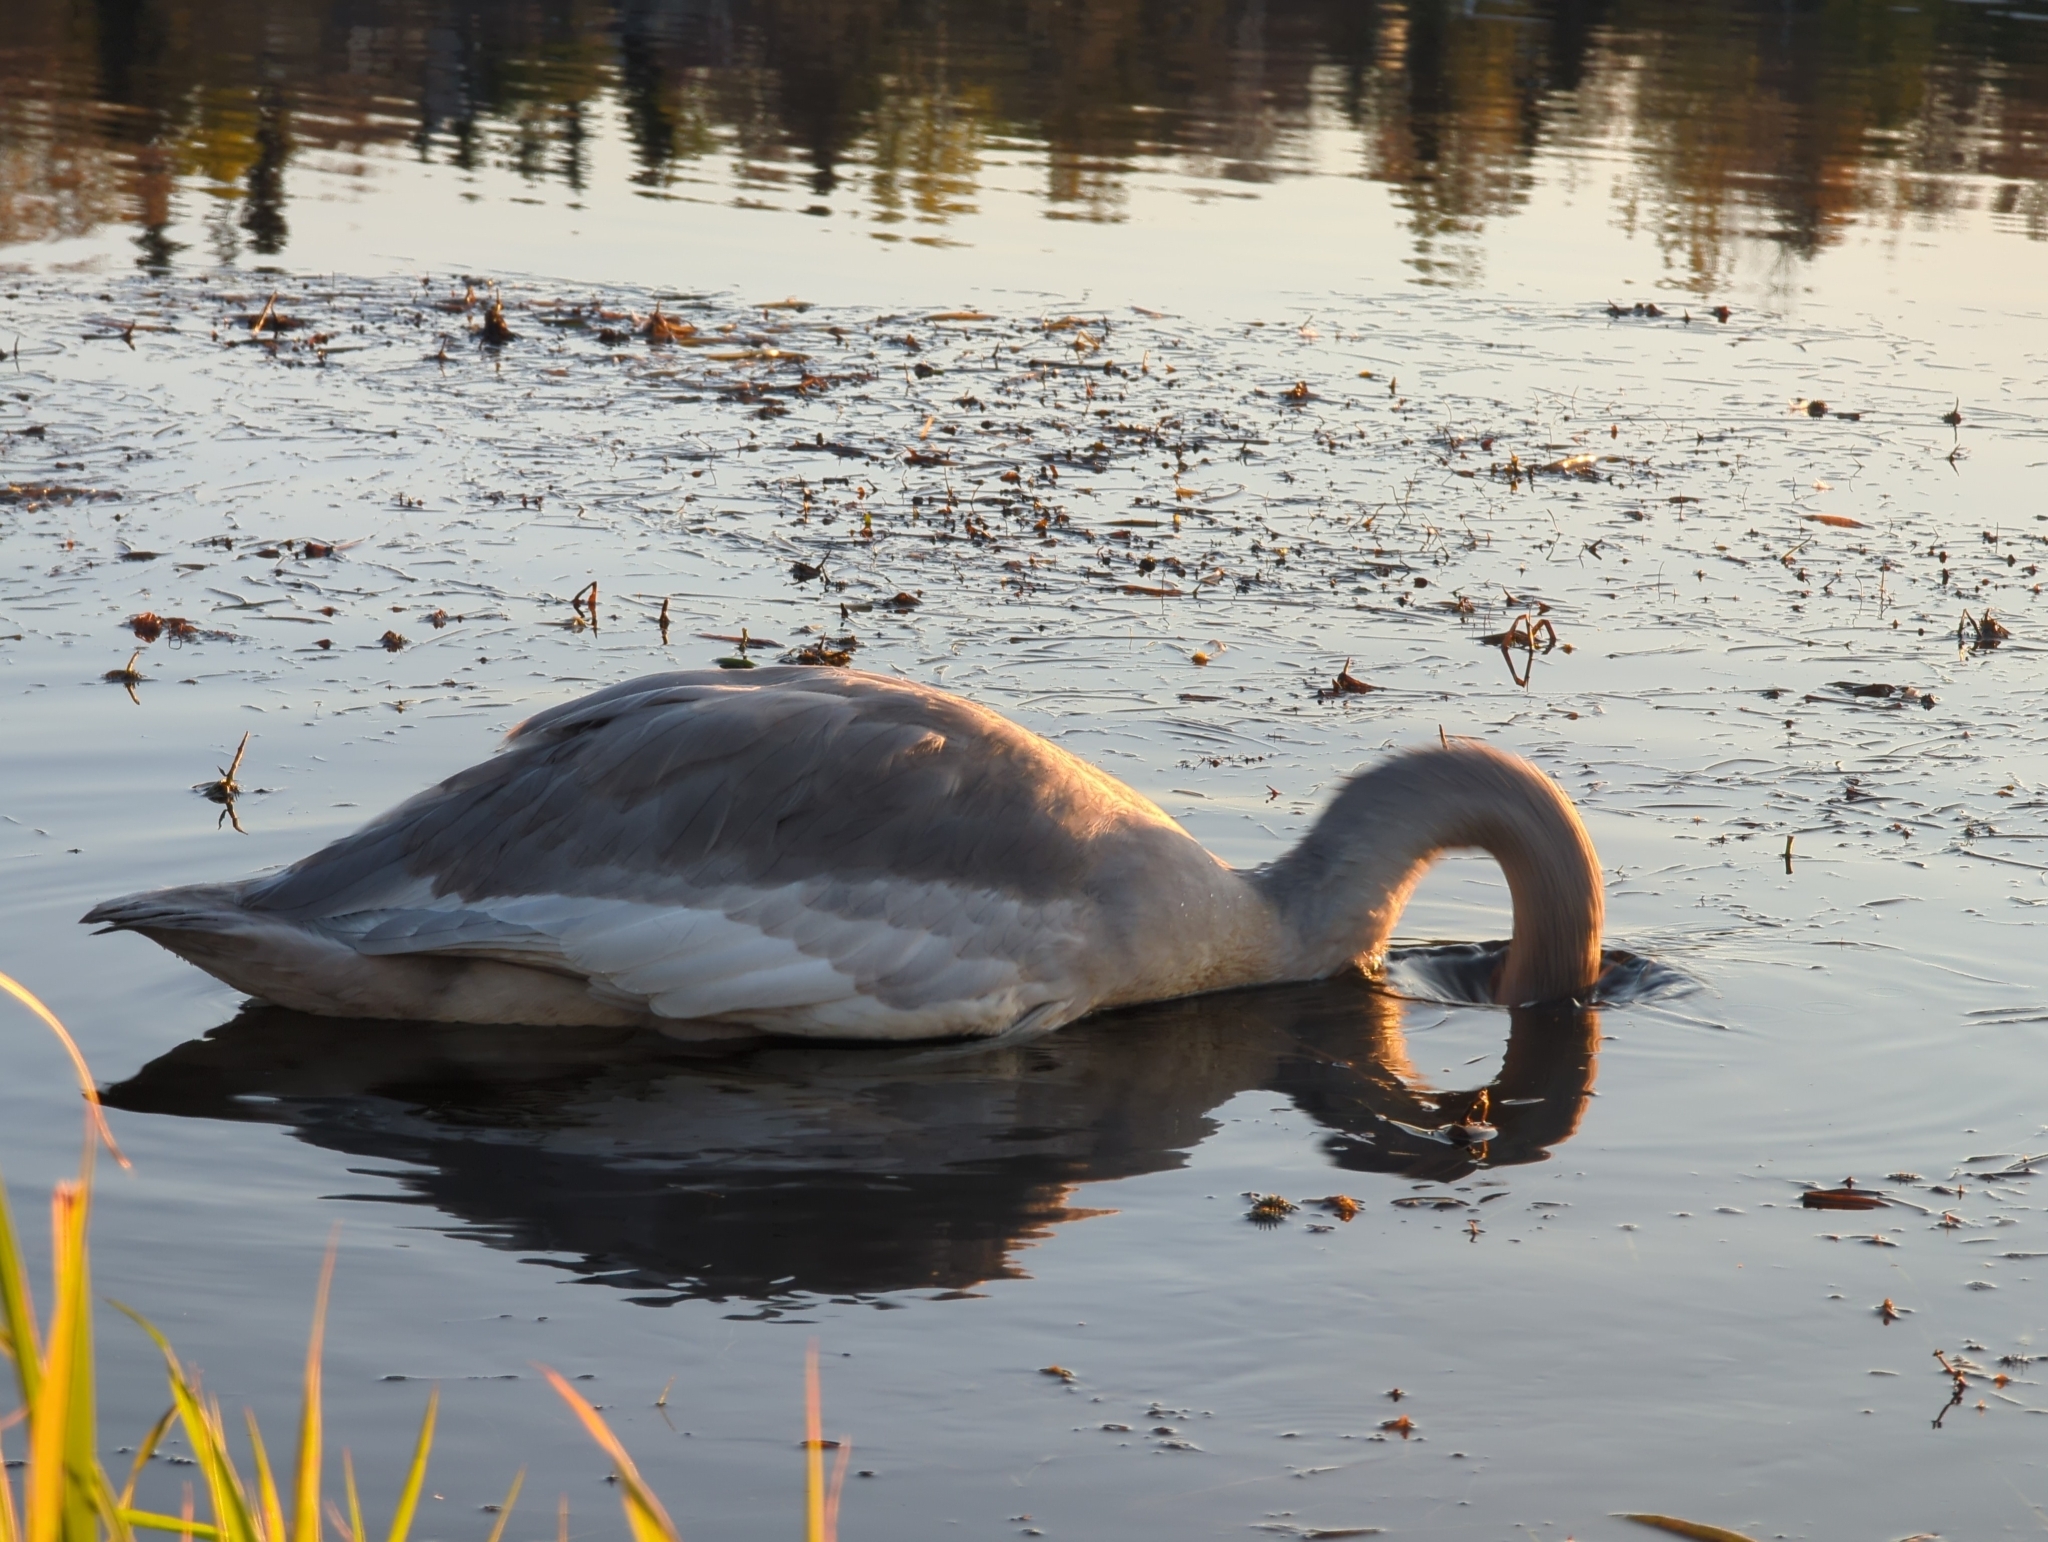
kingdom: Animalia
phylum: Chordata
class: Aves
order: Anseriformes
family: Anatidae
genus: Cygnus
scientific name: Cygnus buccinator
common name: Trumpeter swan
